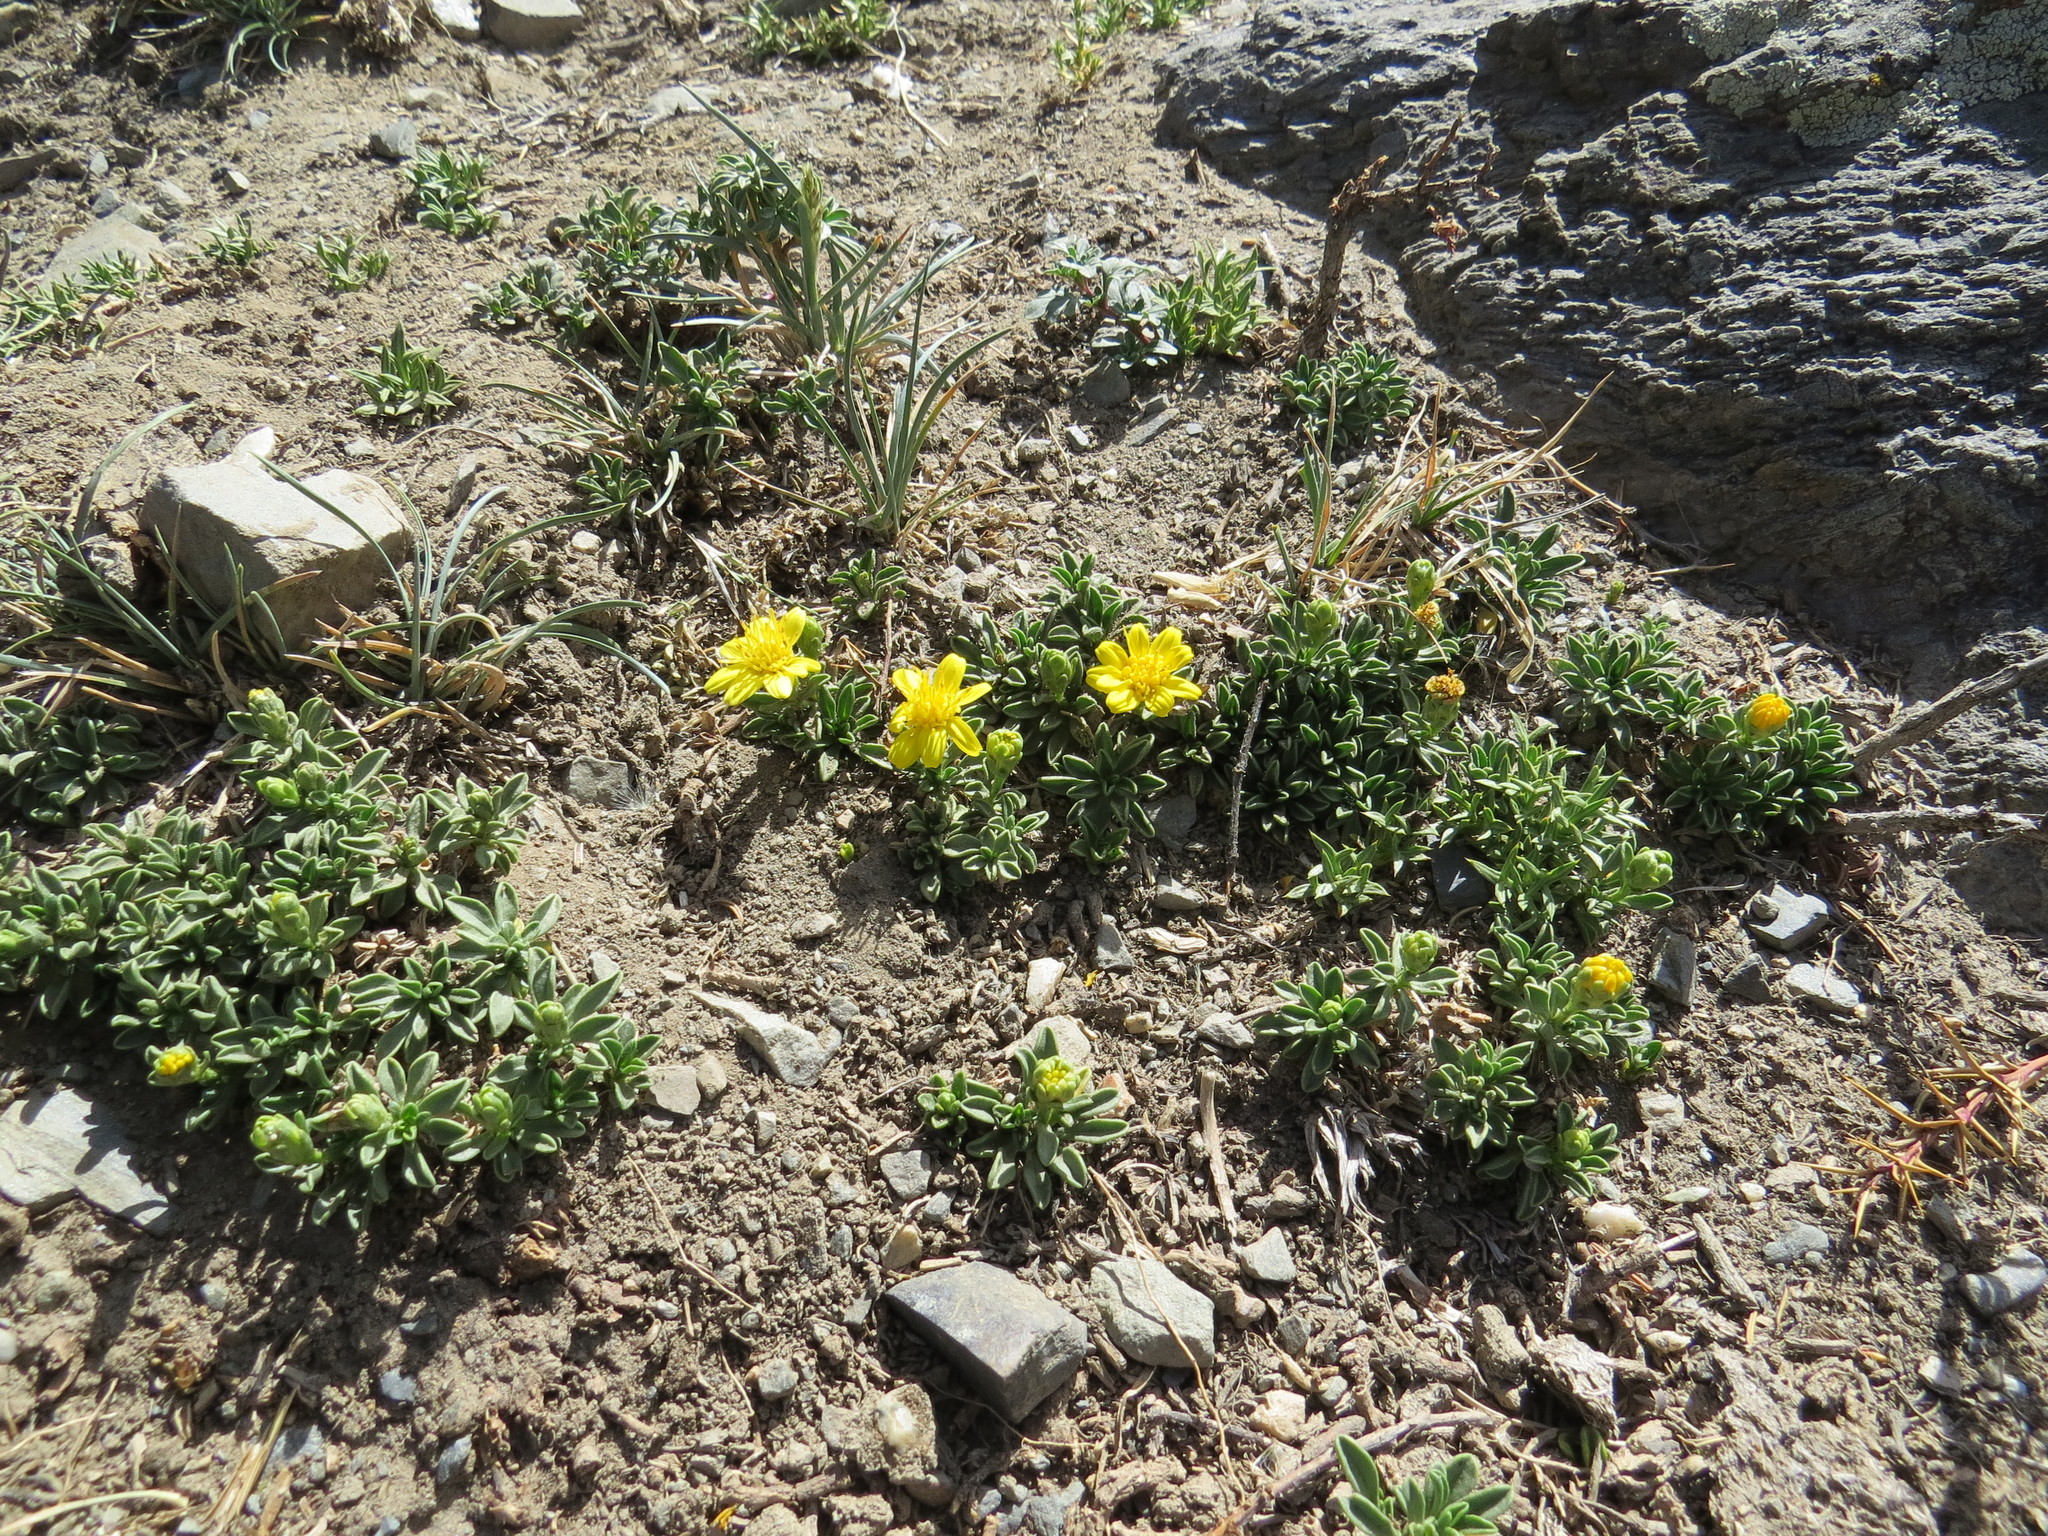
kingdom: Plantae
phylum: Tracheophyta
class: Magnoliopsida
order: Asterales
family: Asteraceae
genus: Gutierrezia
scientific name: Gutierrezia baccharoides
